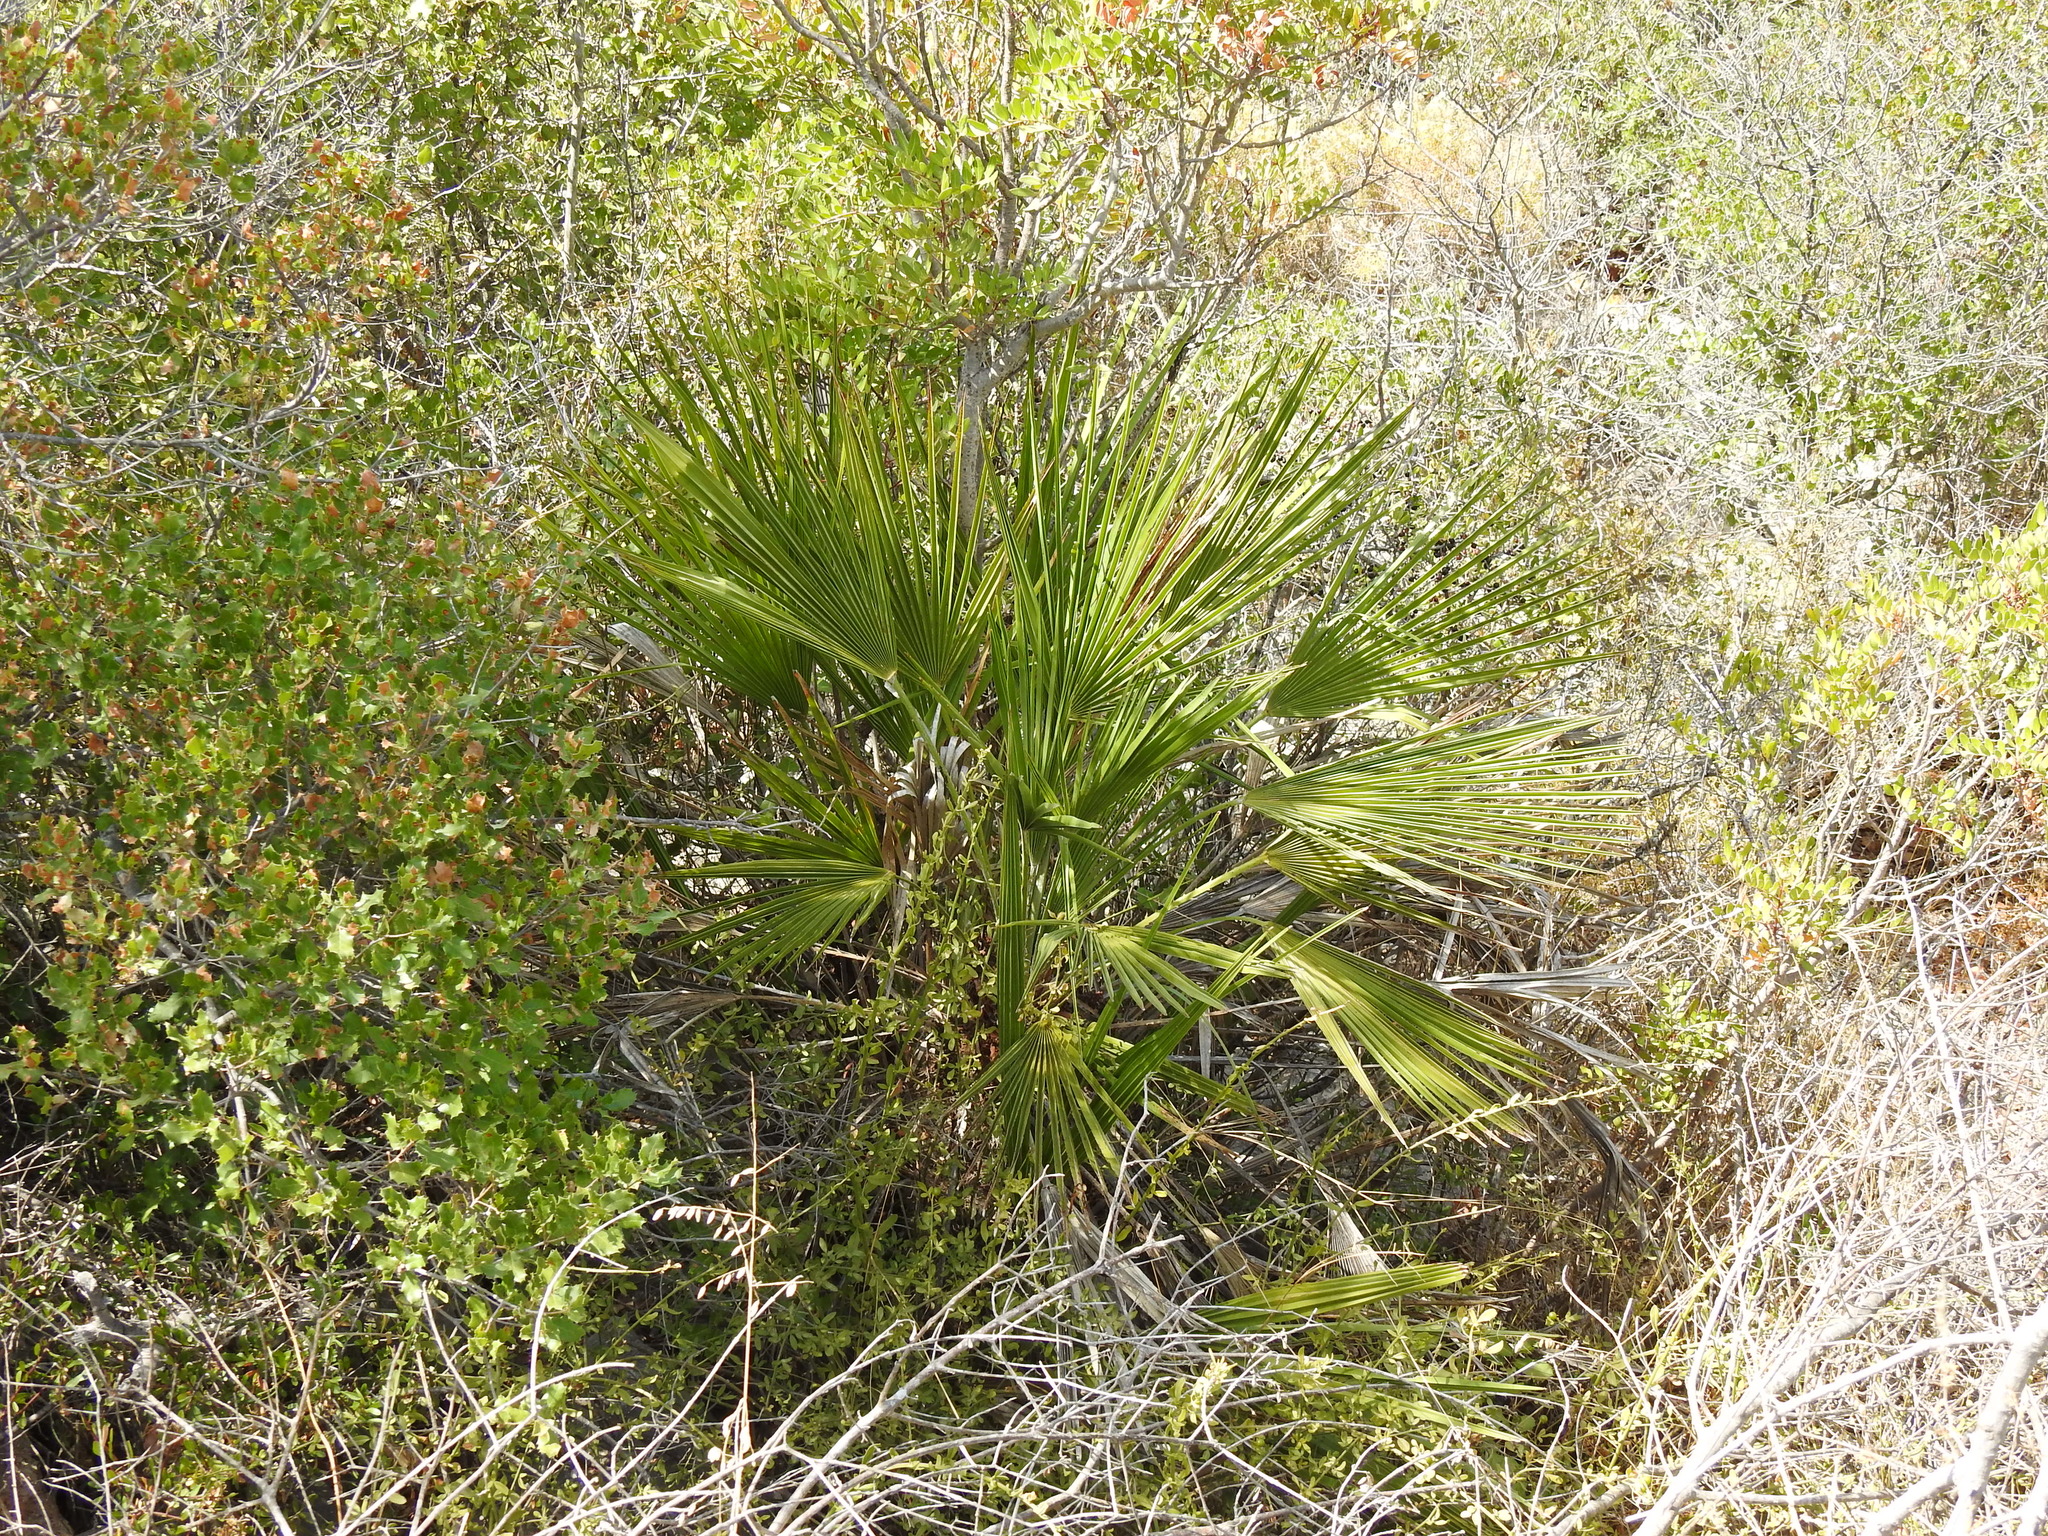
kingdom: Plantae
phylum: Tracheophyta
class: Liliopsida
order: Arecales
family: Arecaceae
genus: Chamaerops
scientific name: Chamaerops humilis
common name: Dwarf fan palm
